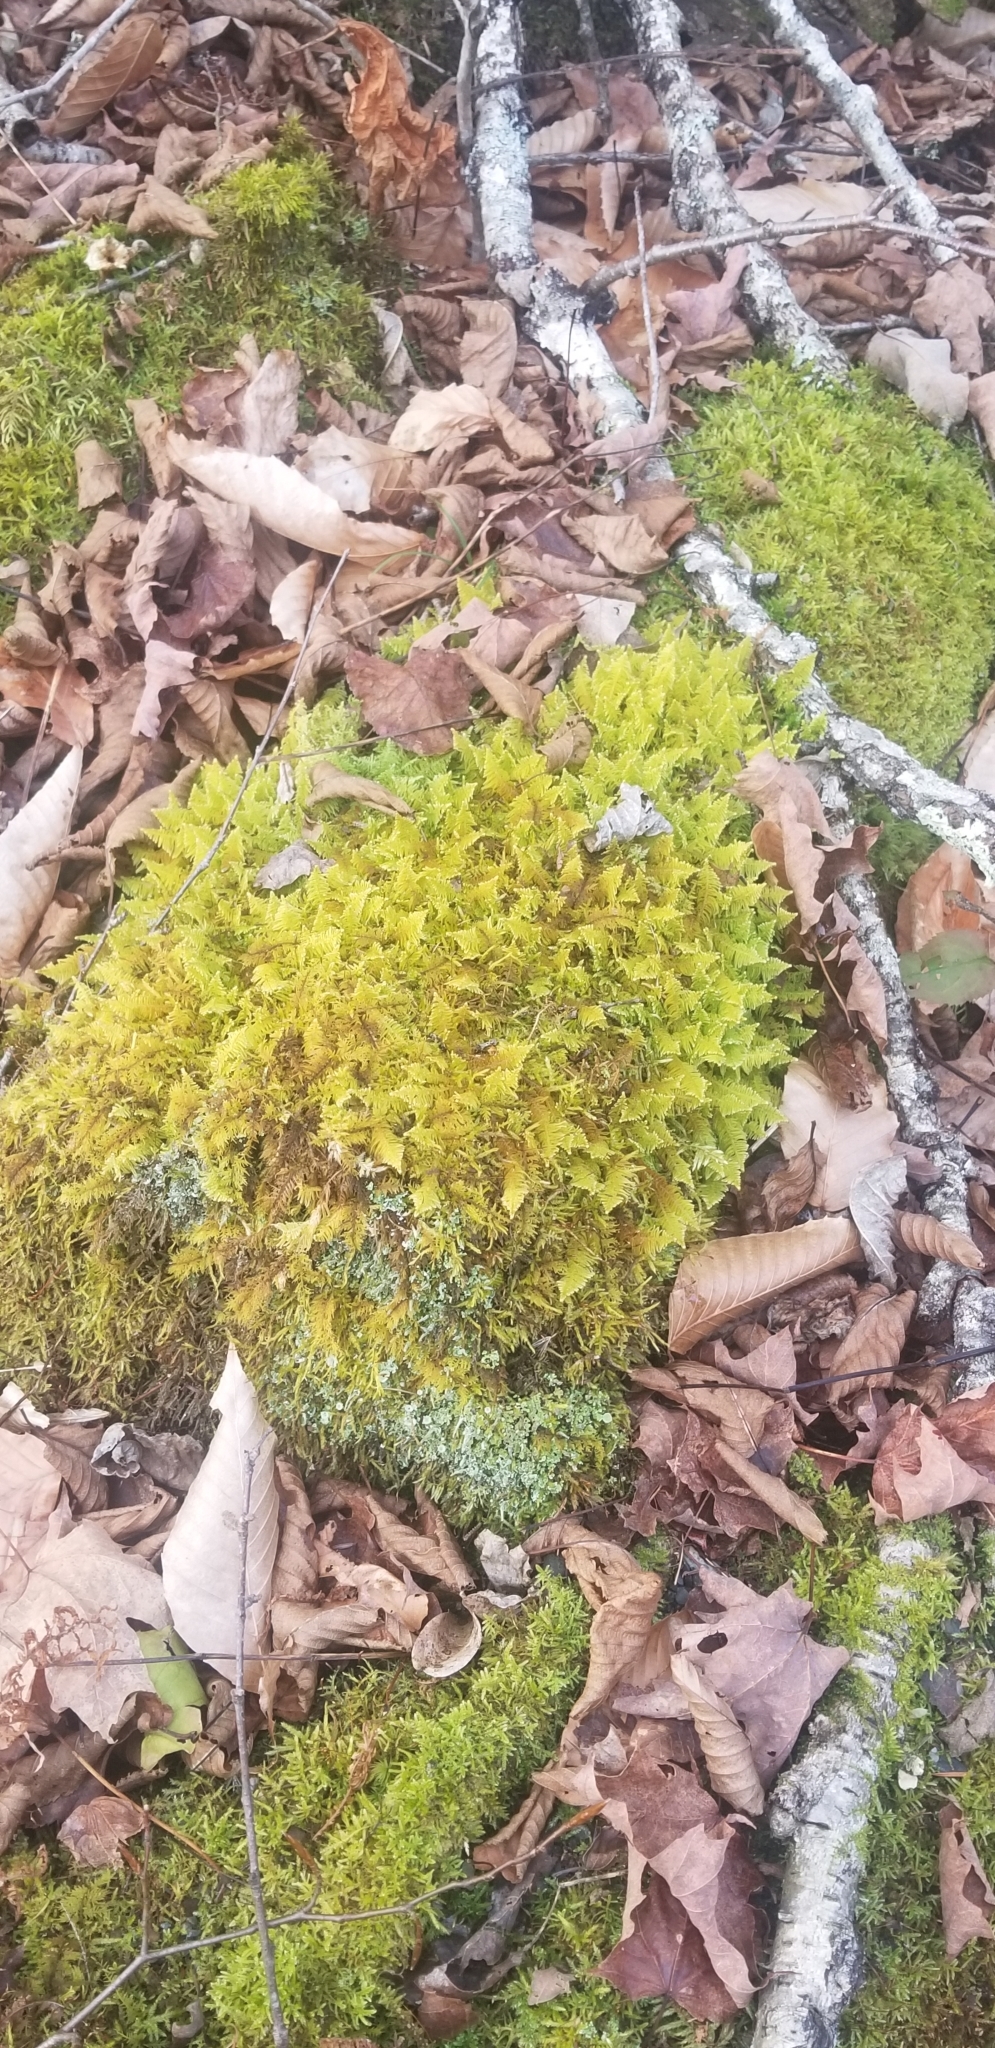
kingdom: Plantae
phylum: Bryophyta
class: Bryopsida
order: Hypnales
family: Pylaisiaceae
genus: Ptilium
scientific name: Ptilium crista-castrensis
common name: Knight's plume moss
